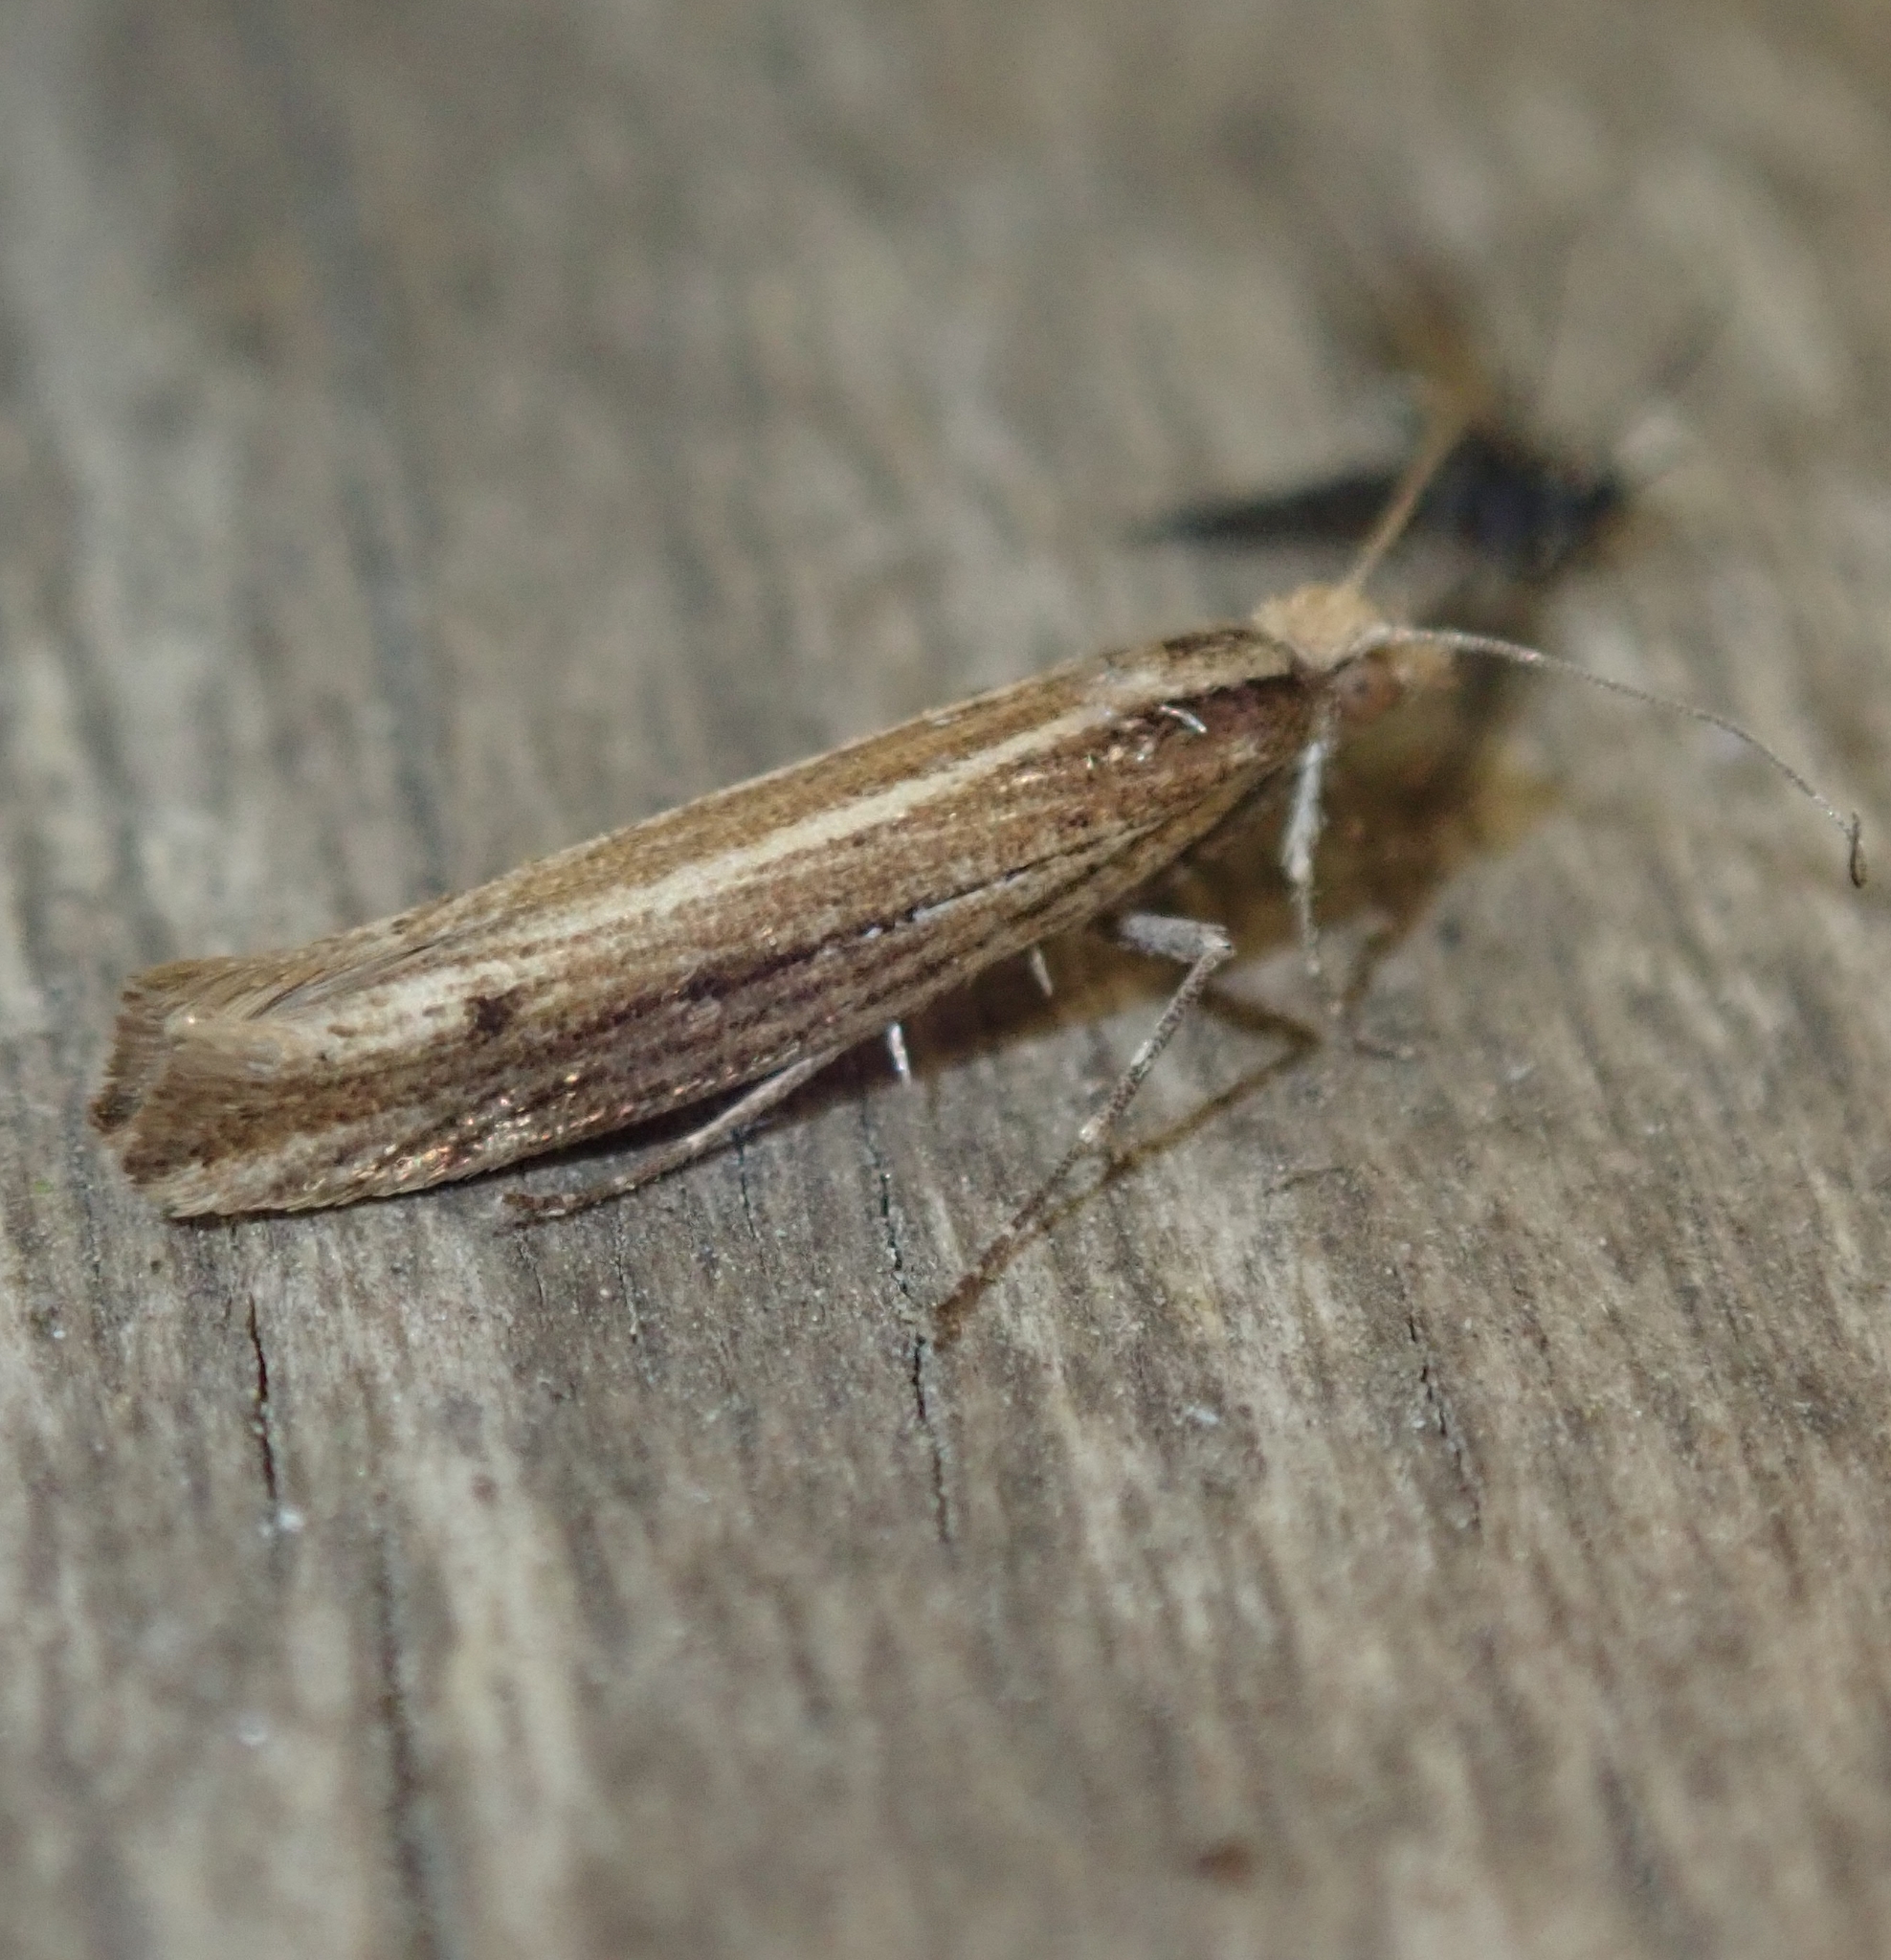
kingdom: Animalia
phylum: Arthropoda
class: Insecta
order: Lepidoptera
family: Plutellidae
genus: Ypsolophus
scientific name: Ypsolophus ustella
